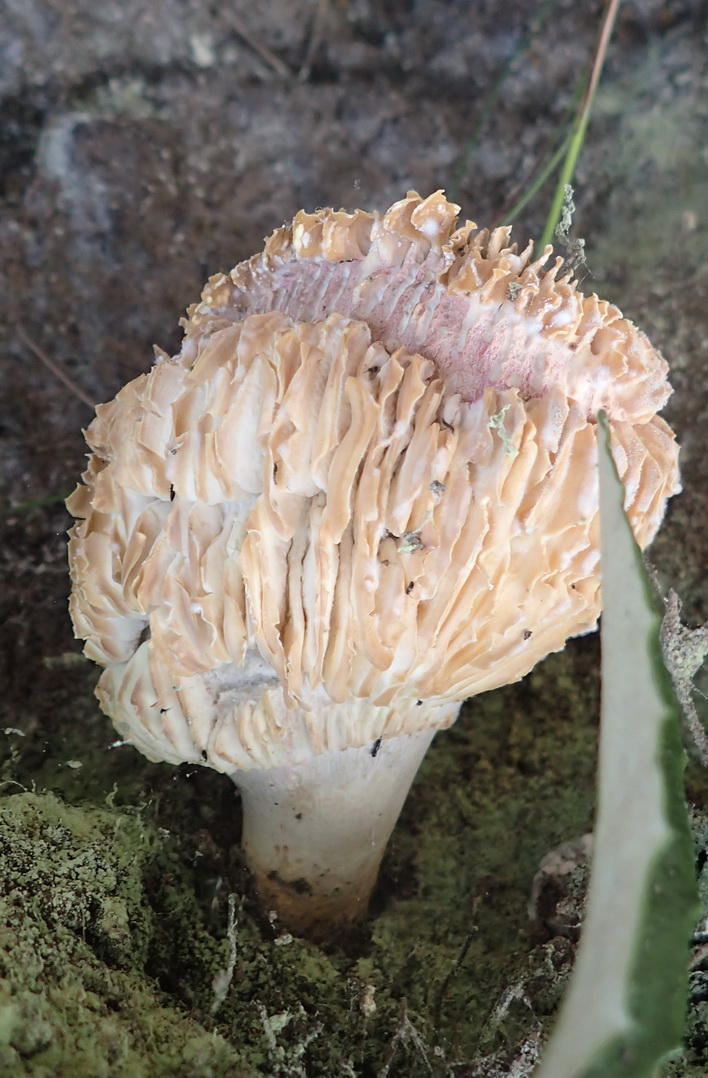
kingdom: Fungi
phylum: Basidiomycota
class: Agaricomycetes
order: Russulales
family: Russulaceae
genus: Russula
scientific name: Russula sardonia
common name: Primrose brittlegill
